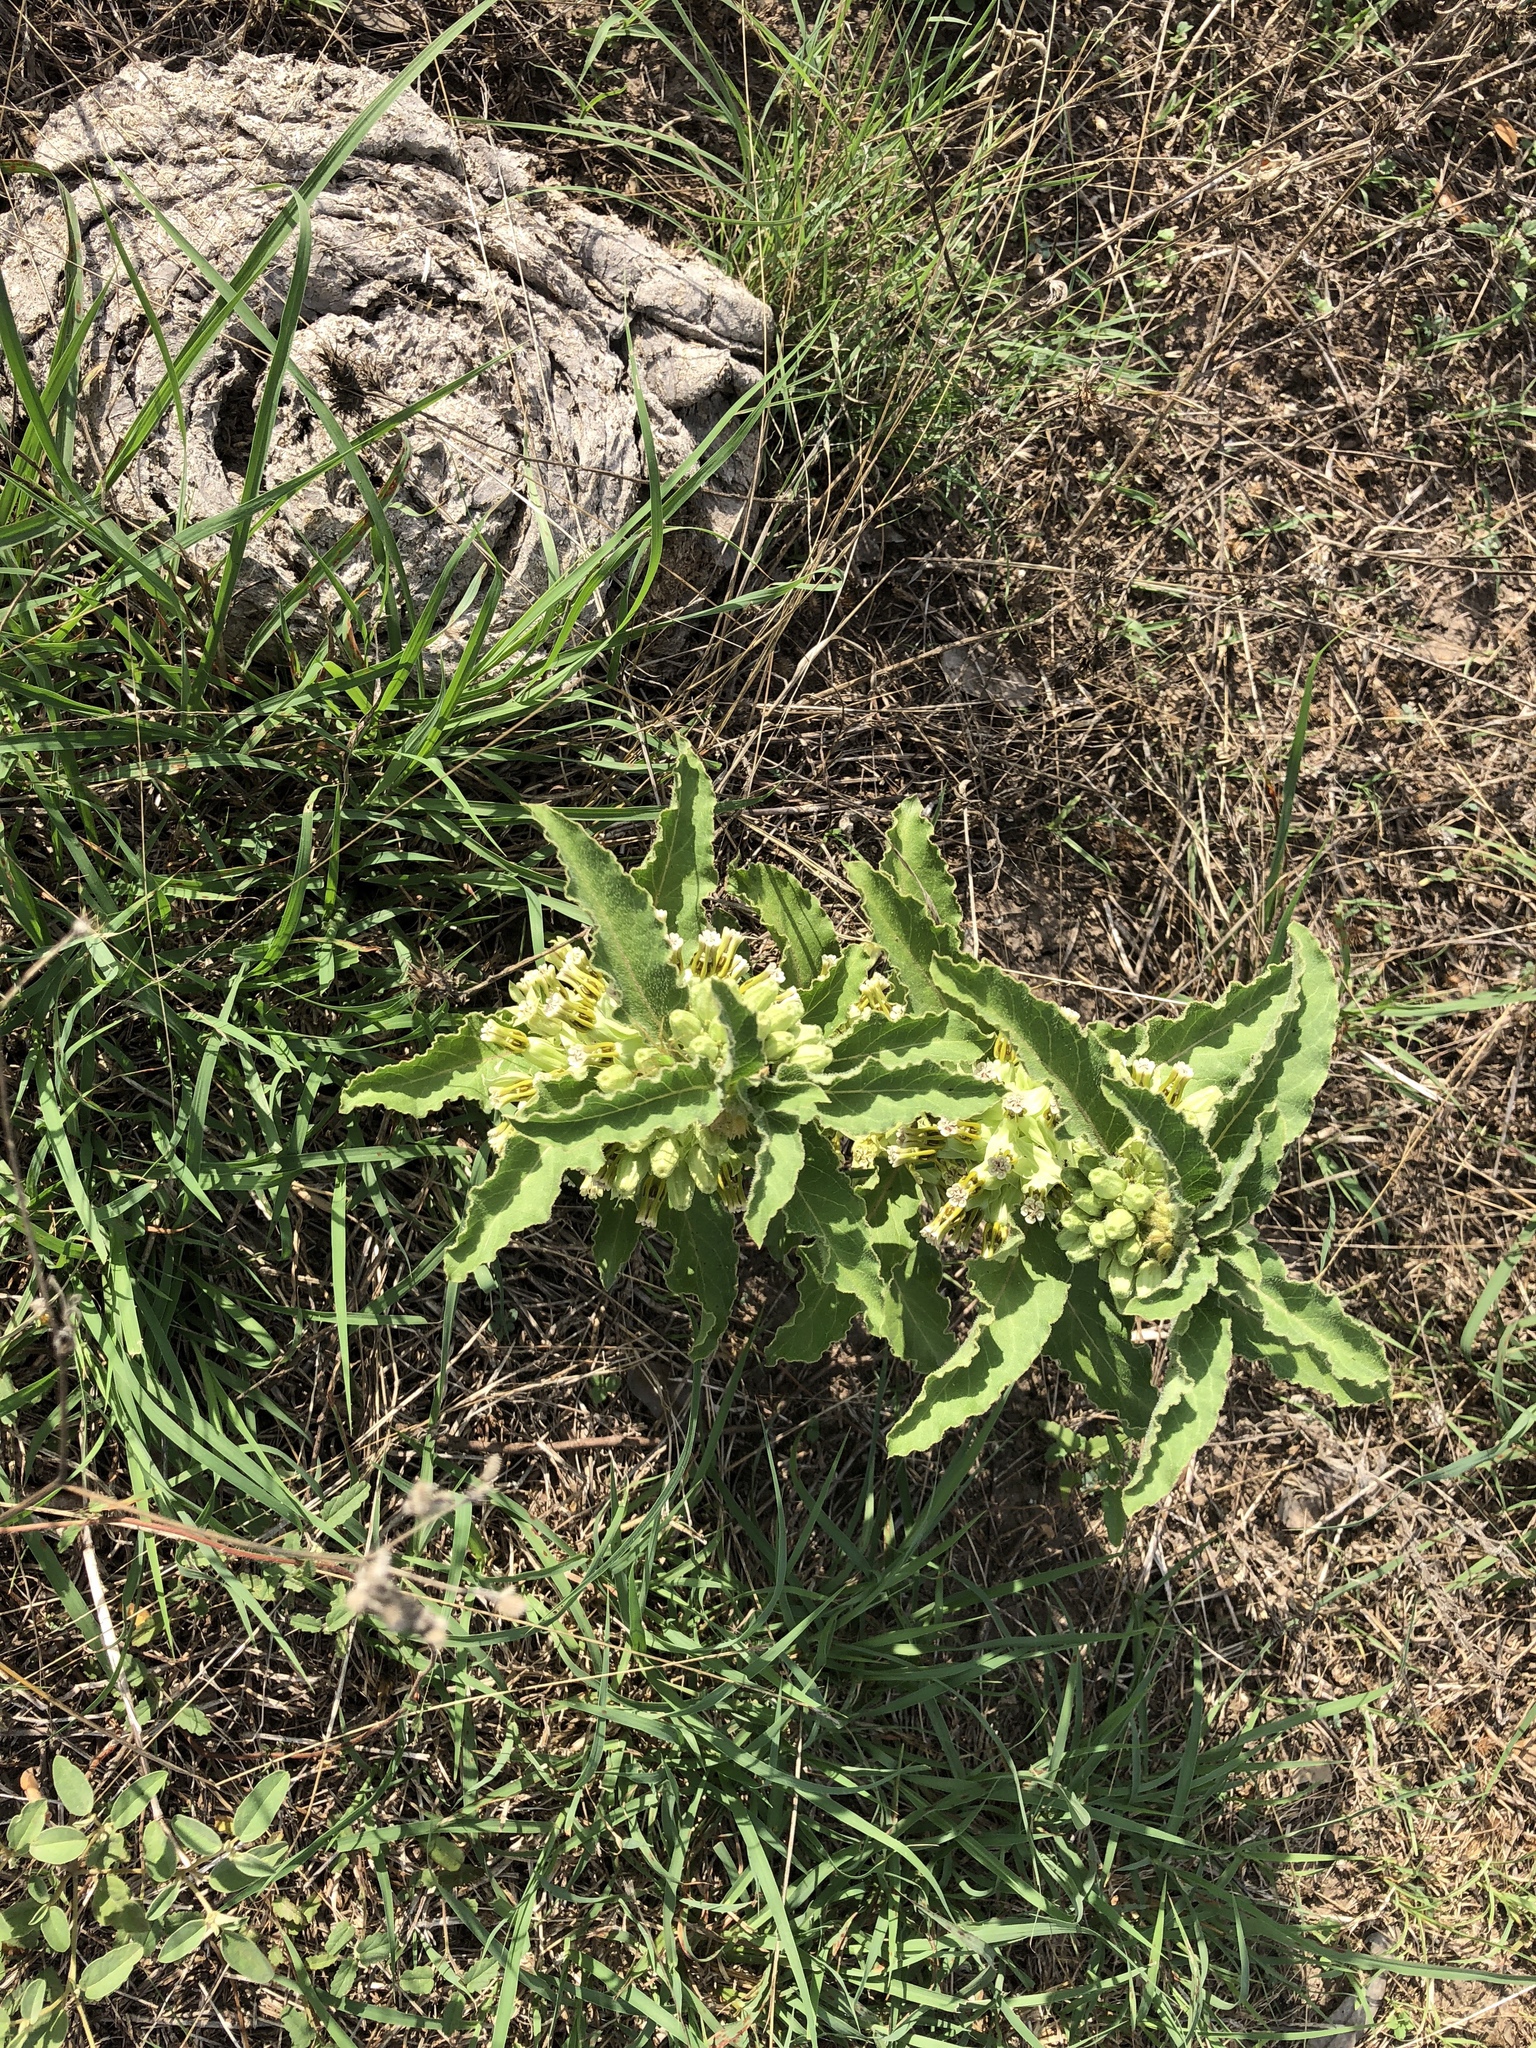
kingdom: Plantae
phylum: Tracheophyta
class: Magnoliopsida
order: Gentianales
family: Apocynaceae
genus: Asclepias
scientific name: Asclepias oenotheroides
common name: Zizotes milkweed
